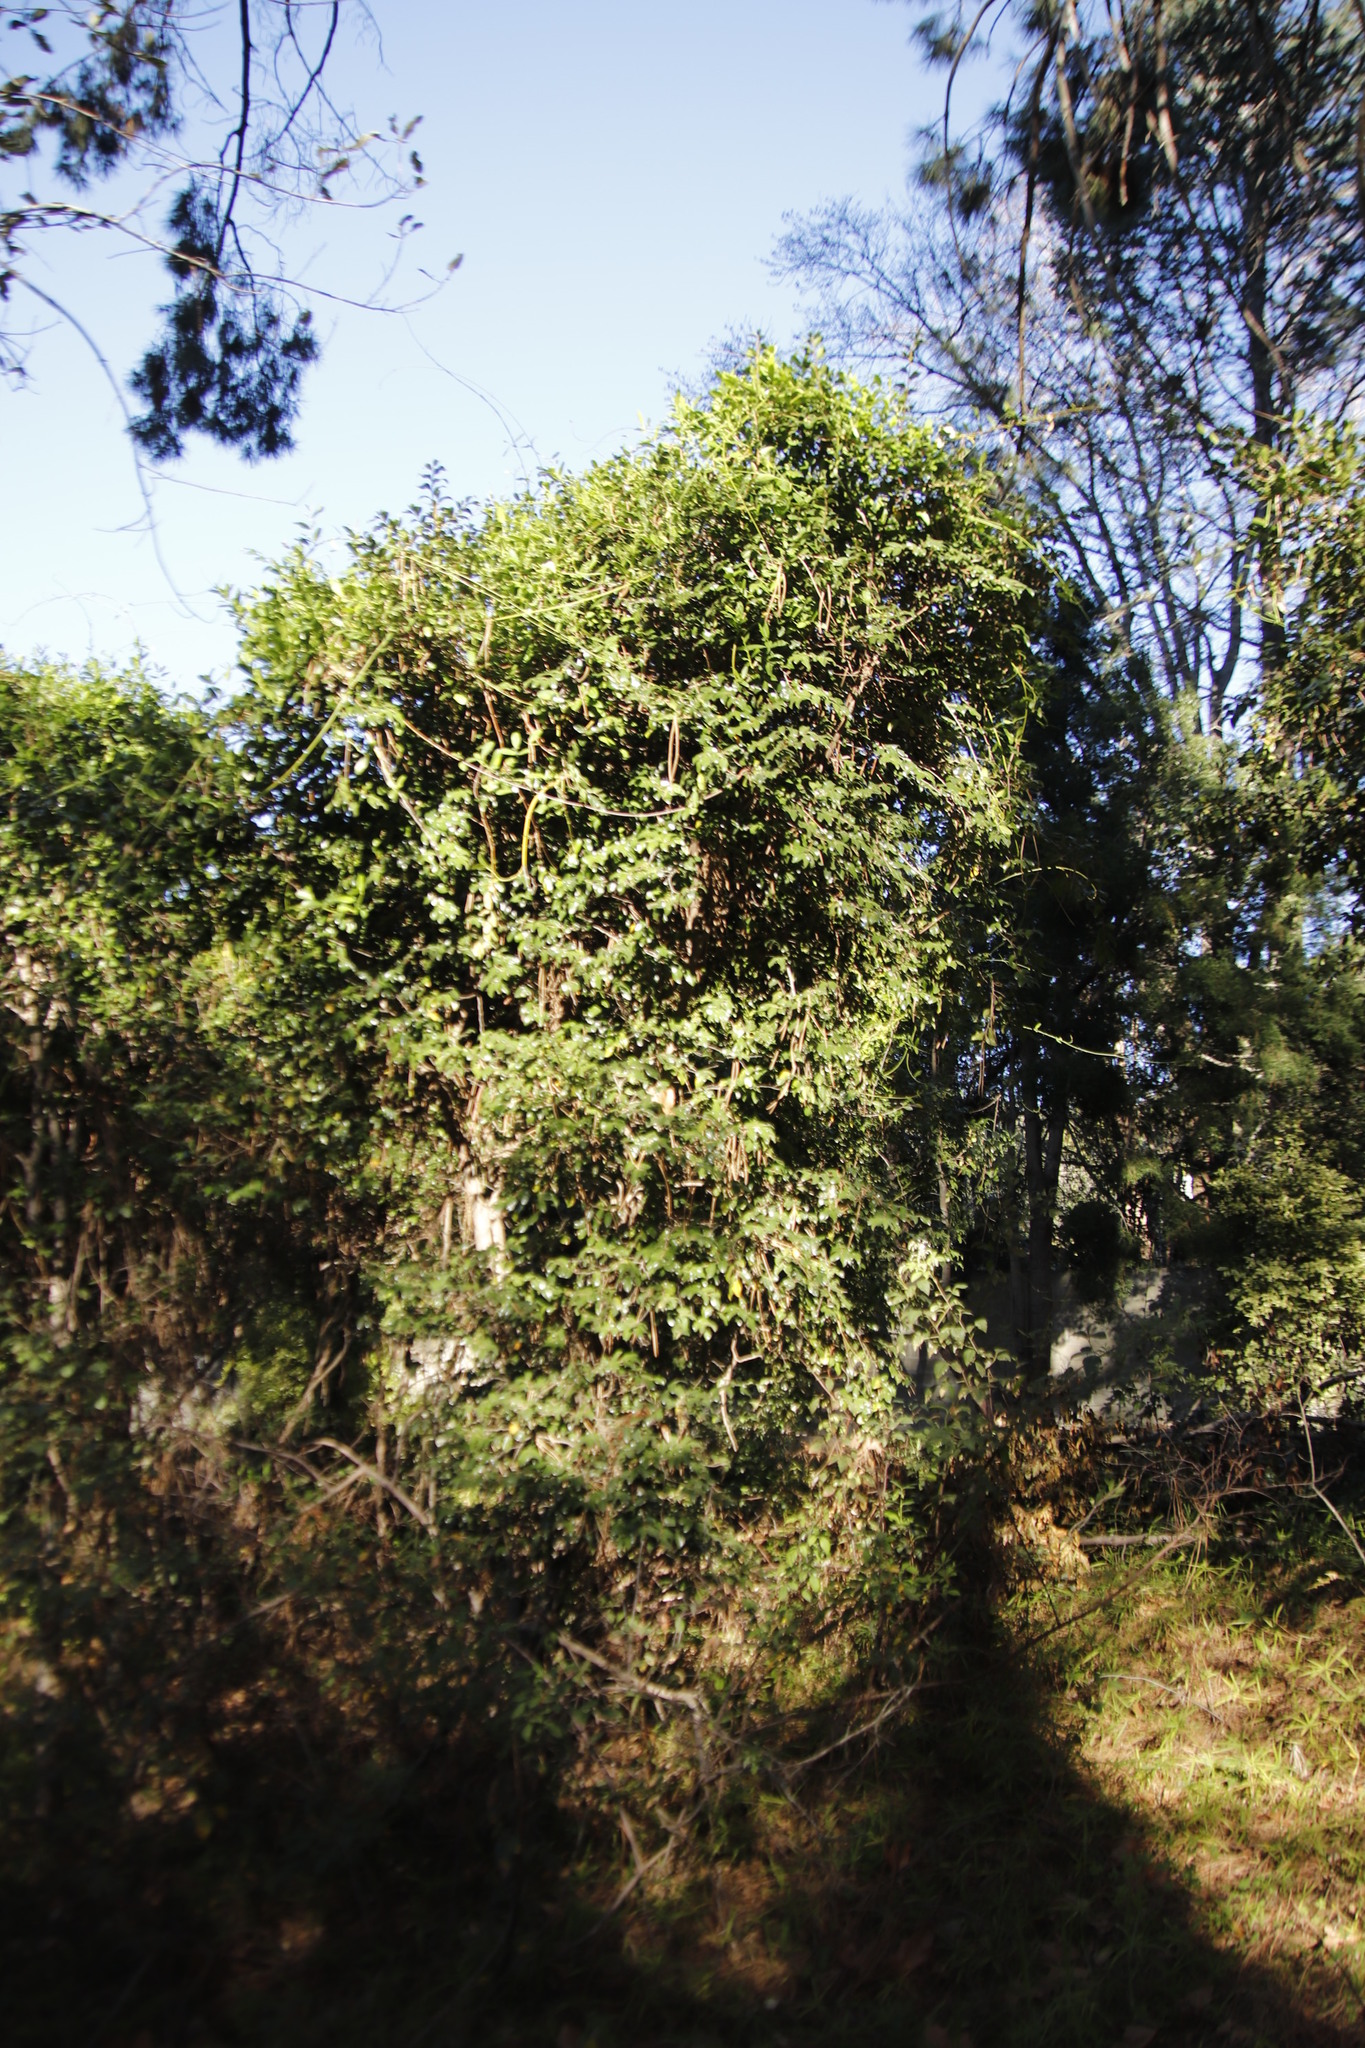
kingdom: Plantae
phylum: Tracheophyta
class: Magnoliopsida
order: Ericales
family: Ebenaceae
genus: Diospyros
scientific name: Diospyros whyteana
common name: Bladder-nut
